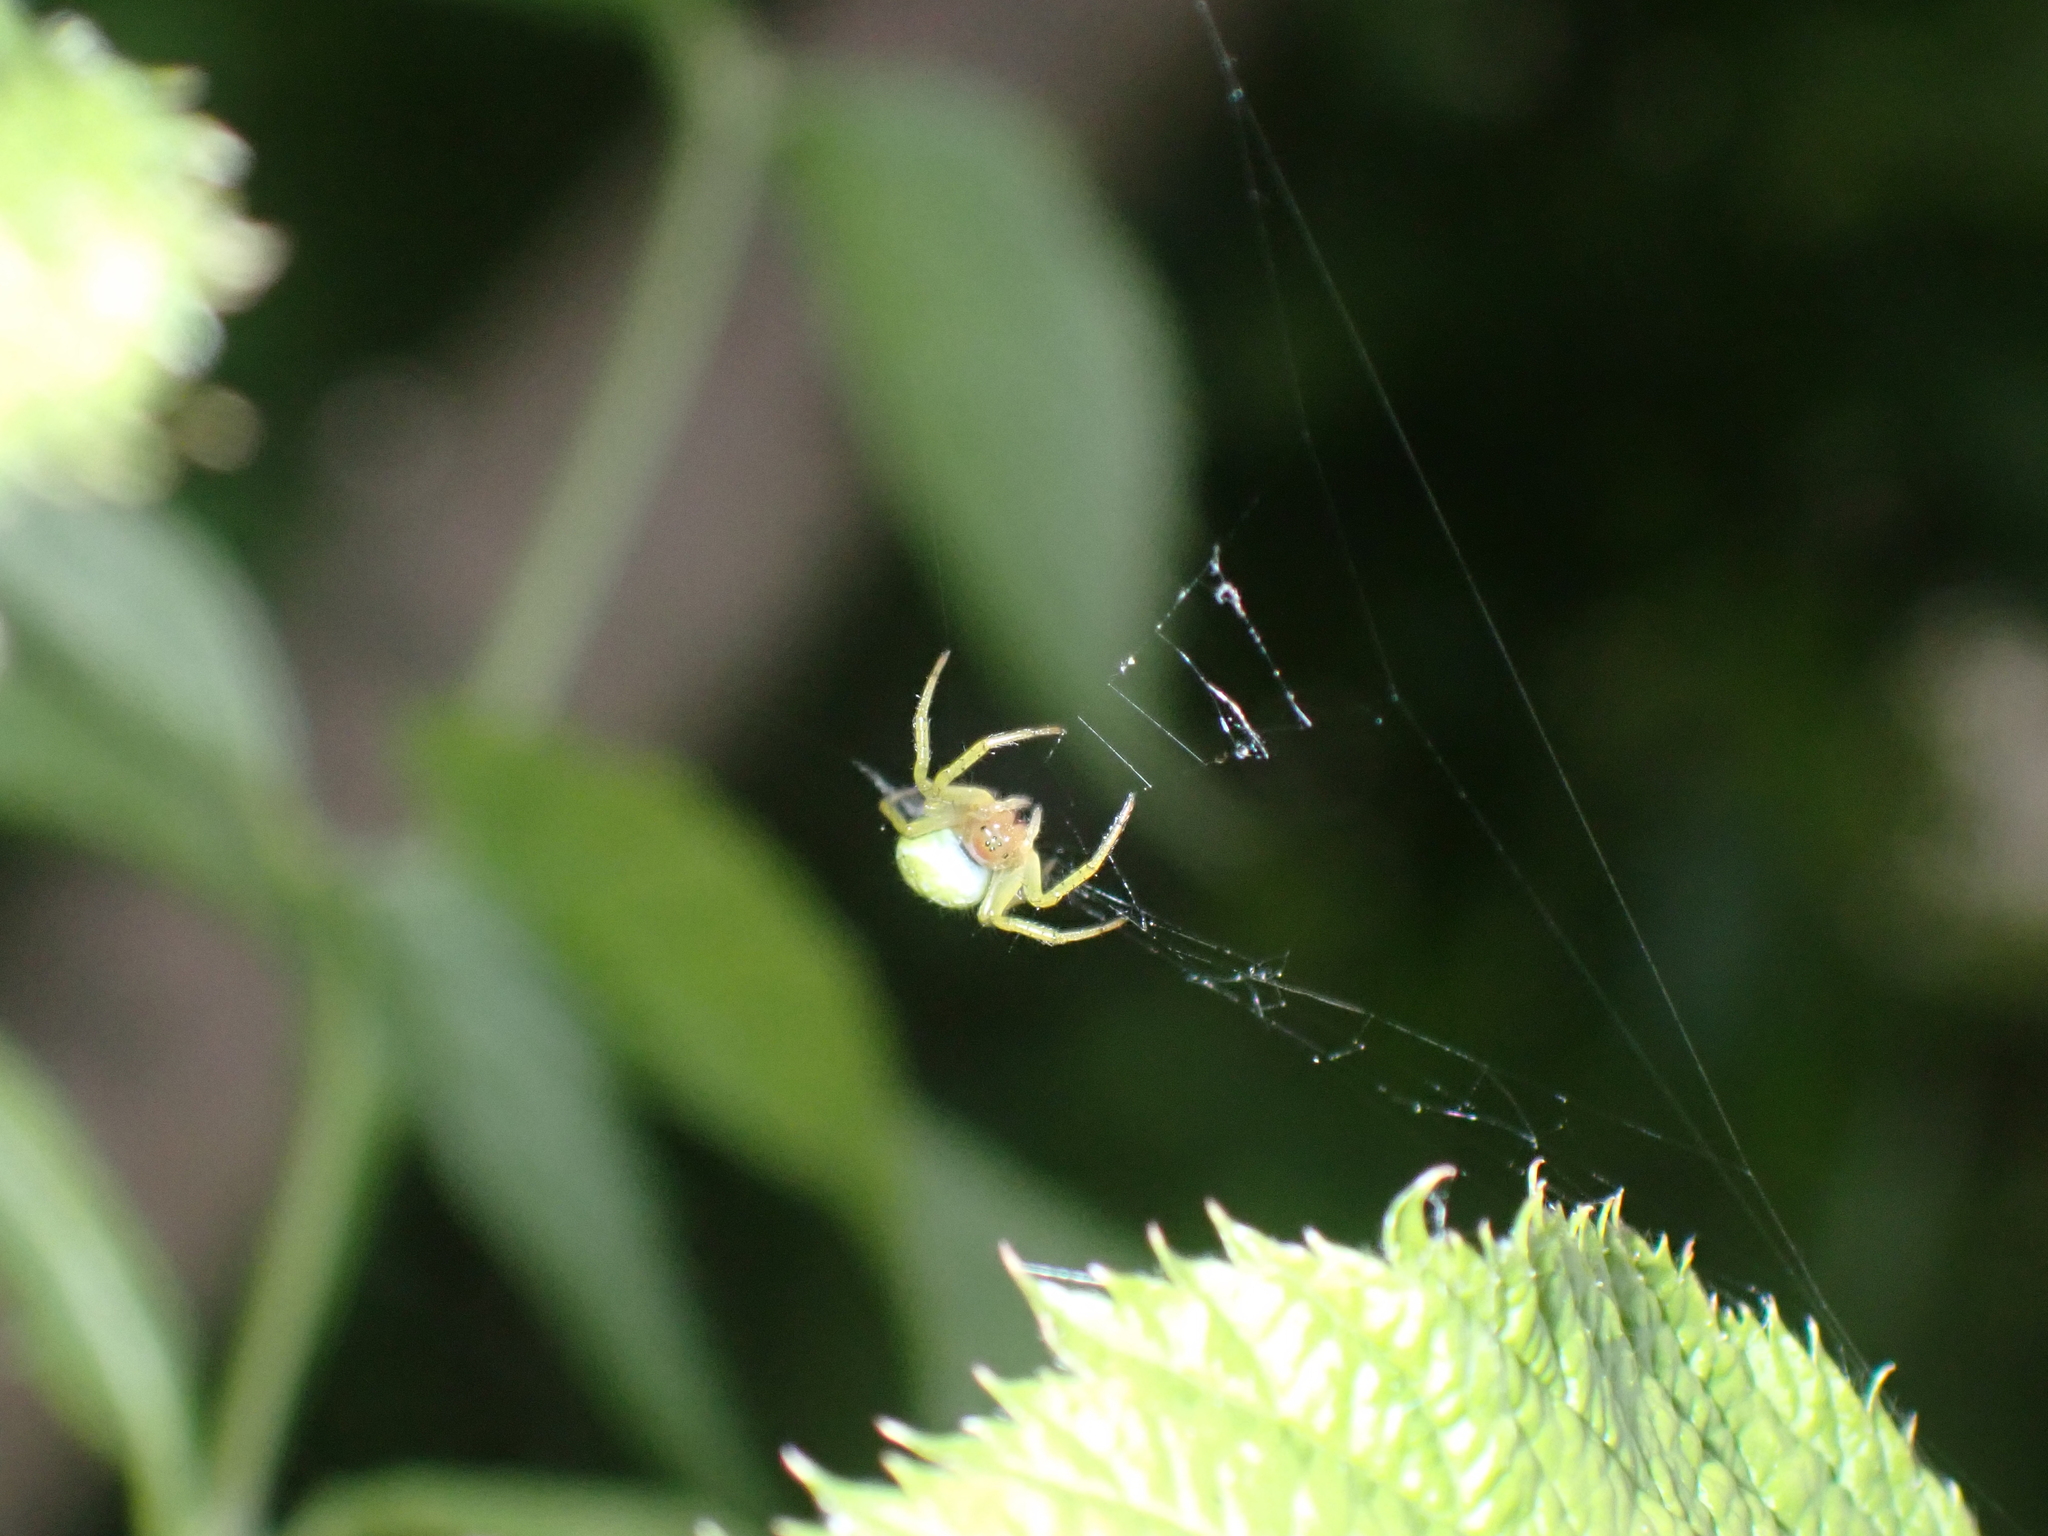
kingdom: Animalia
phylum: Arthropoda
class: Arachnida
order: Araneae
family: Araneidae
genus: Araniella
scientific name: Araniella
